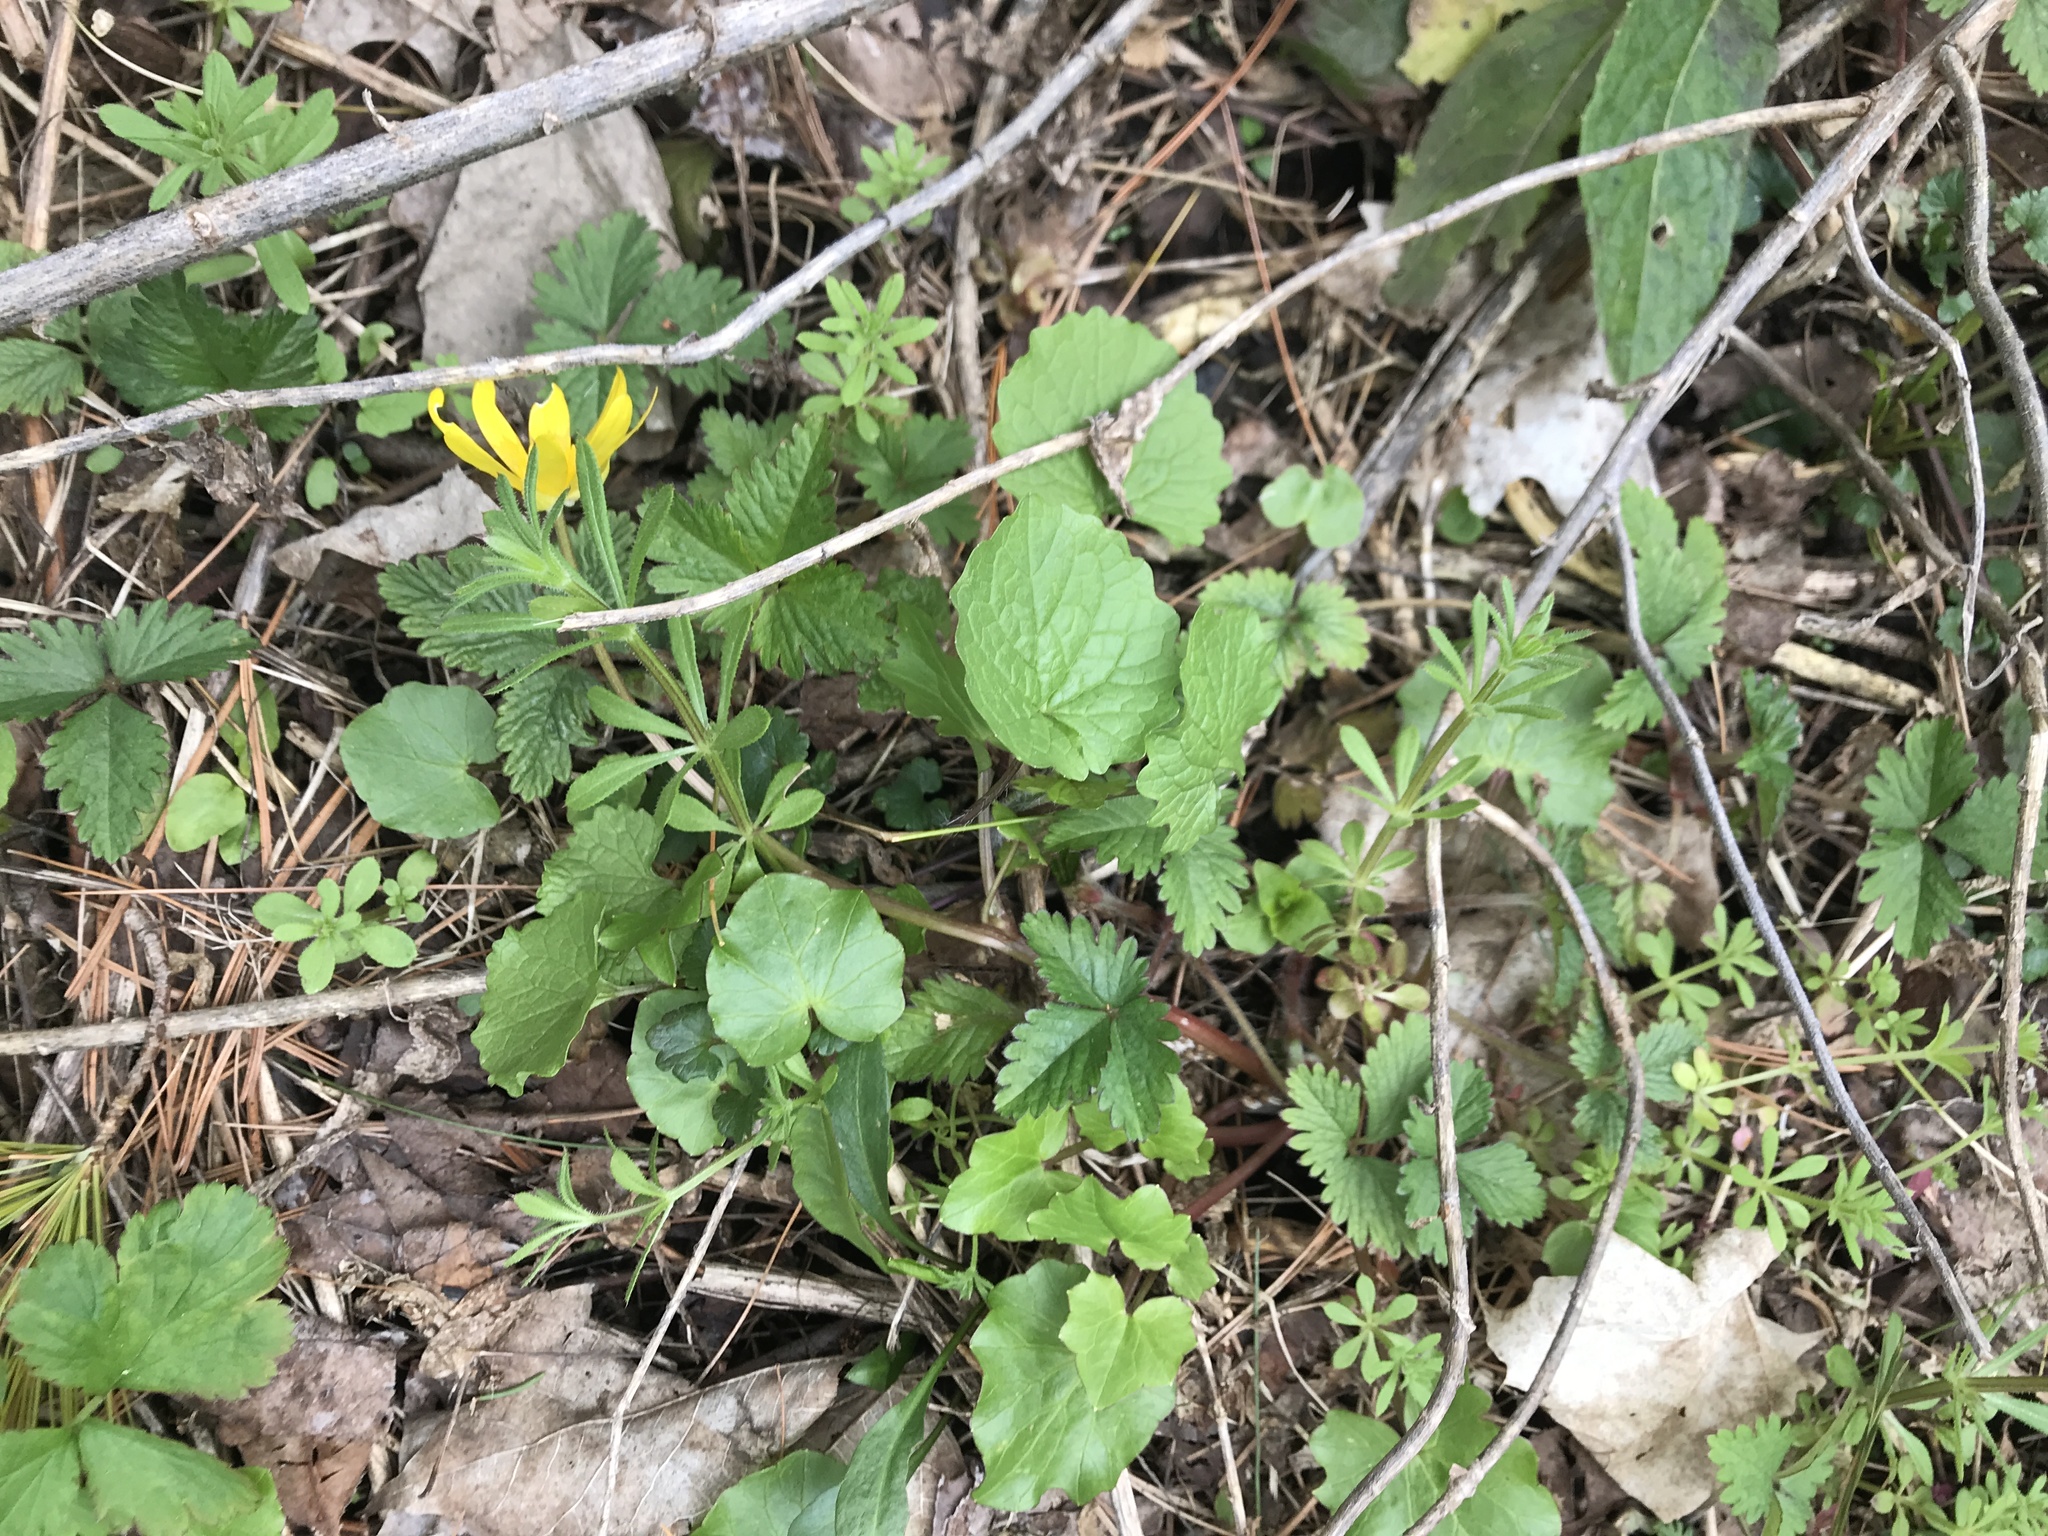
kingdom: Plantae
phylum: Tracheophyta
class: Magnoliopsida
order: Ranunculales
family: Ranunculaceae
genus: Ficaria
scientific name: Ficaria verna
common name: Lesser celandine
